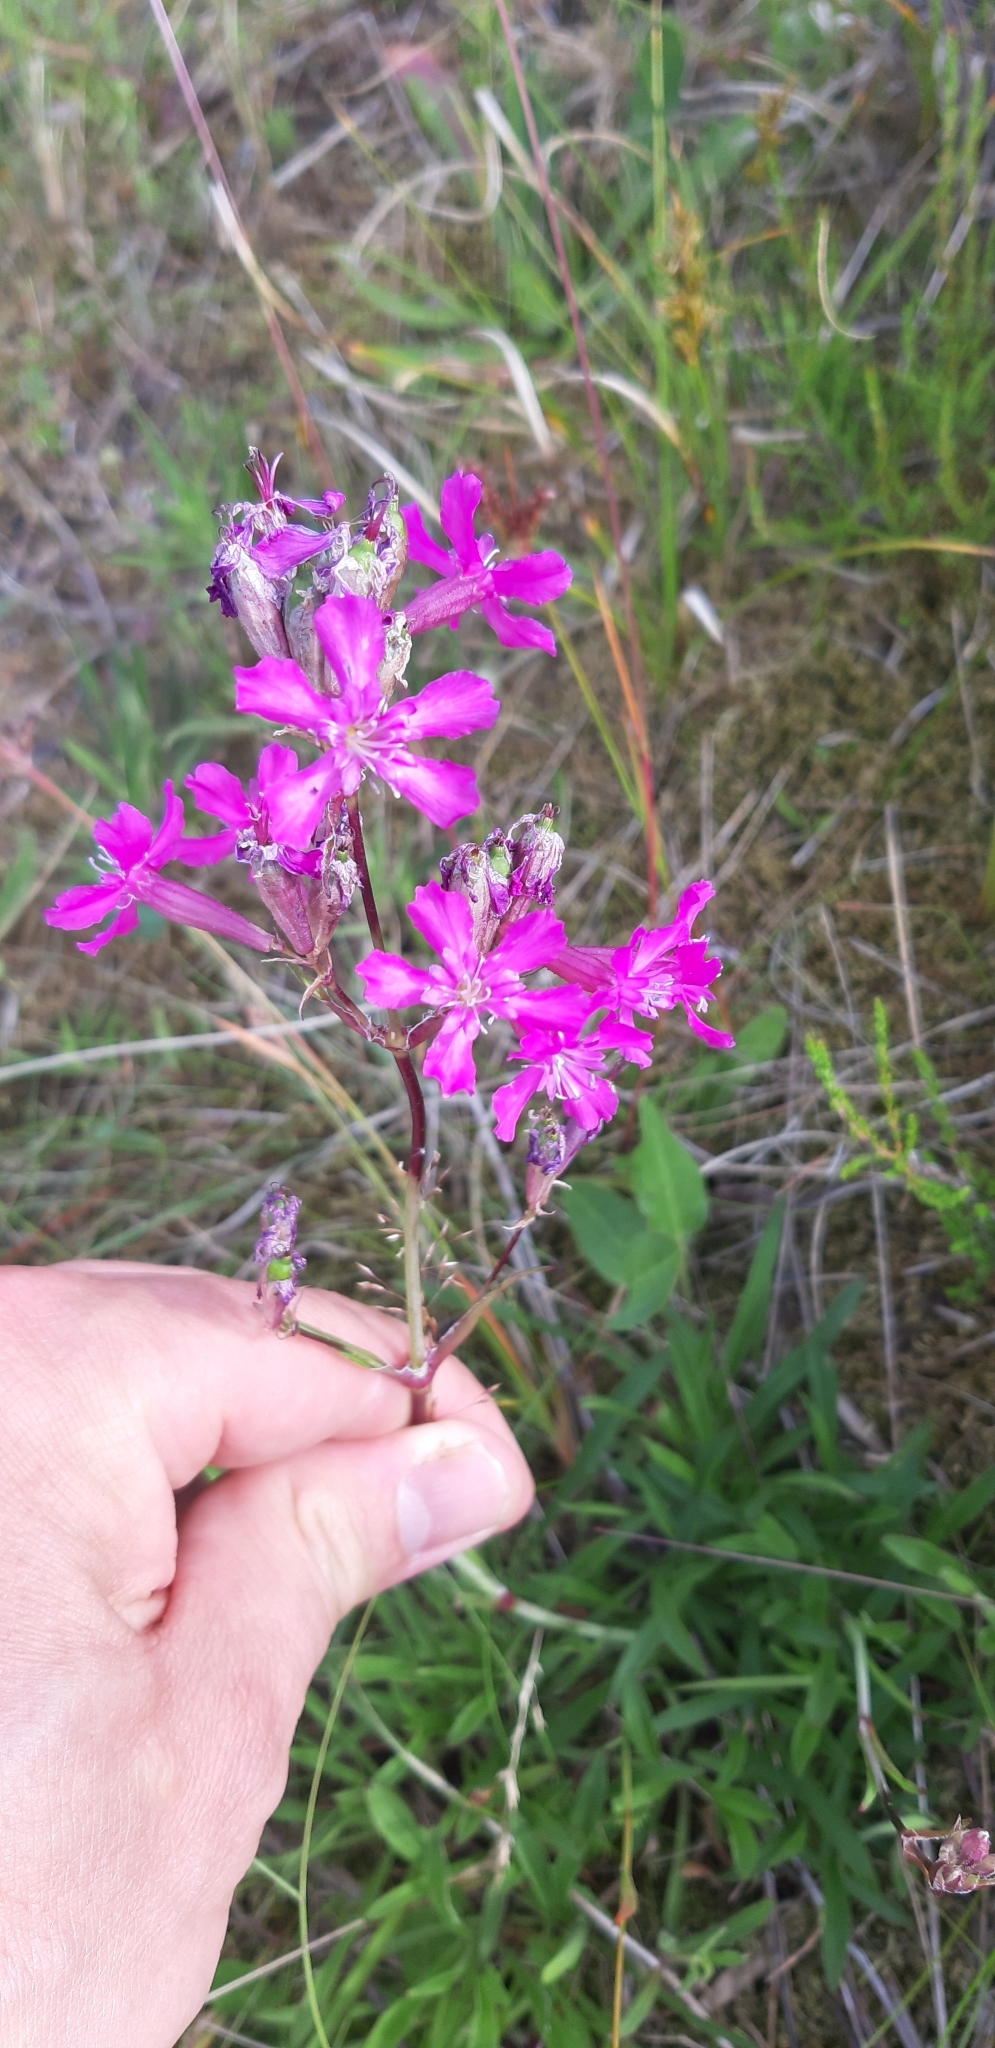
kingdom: Plantae
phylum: Tracheophyta
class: Magnoliopsida
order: Caryophyllales
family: Caryophyllaceae
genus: Viscaria
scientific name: Viscaria vulgaris
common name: Clammy campion
